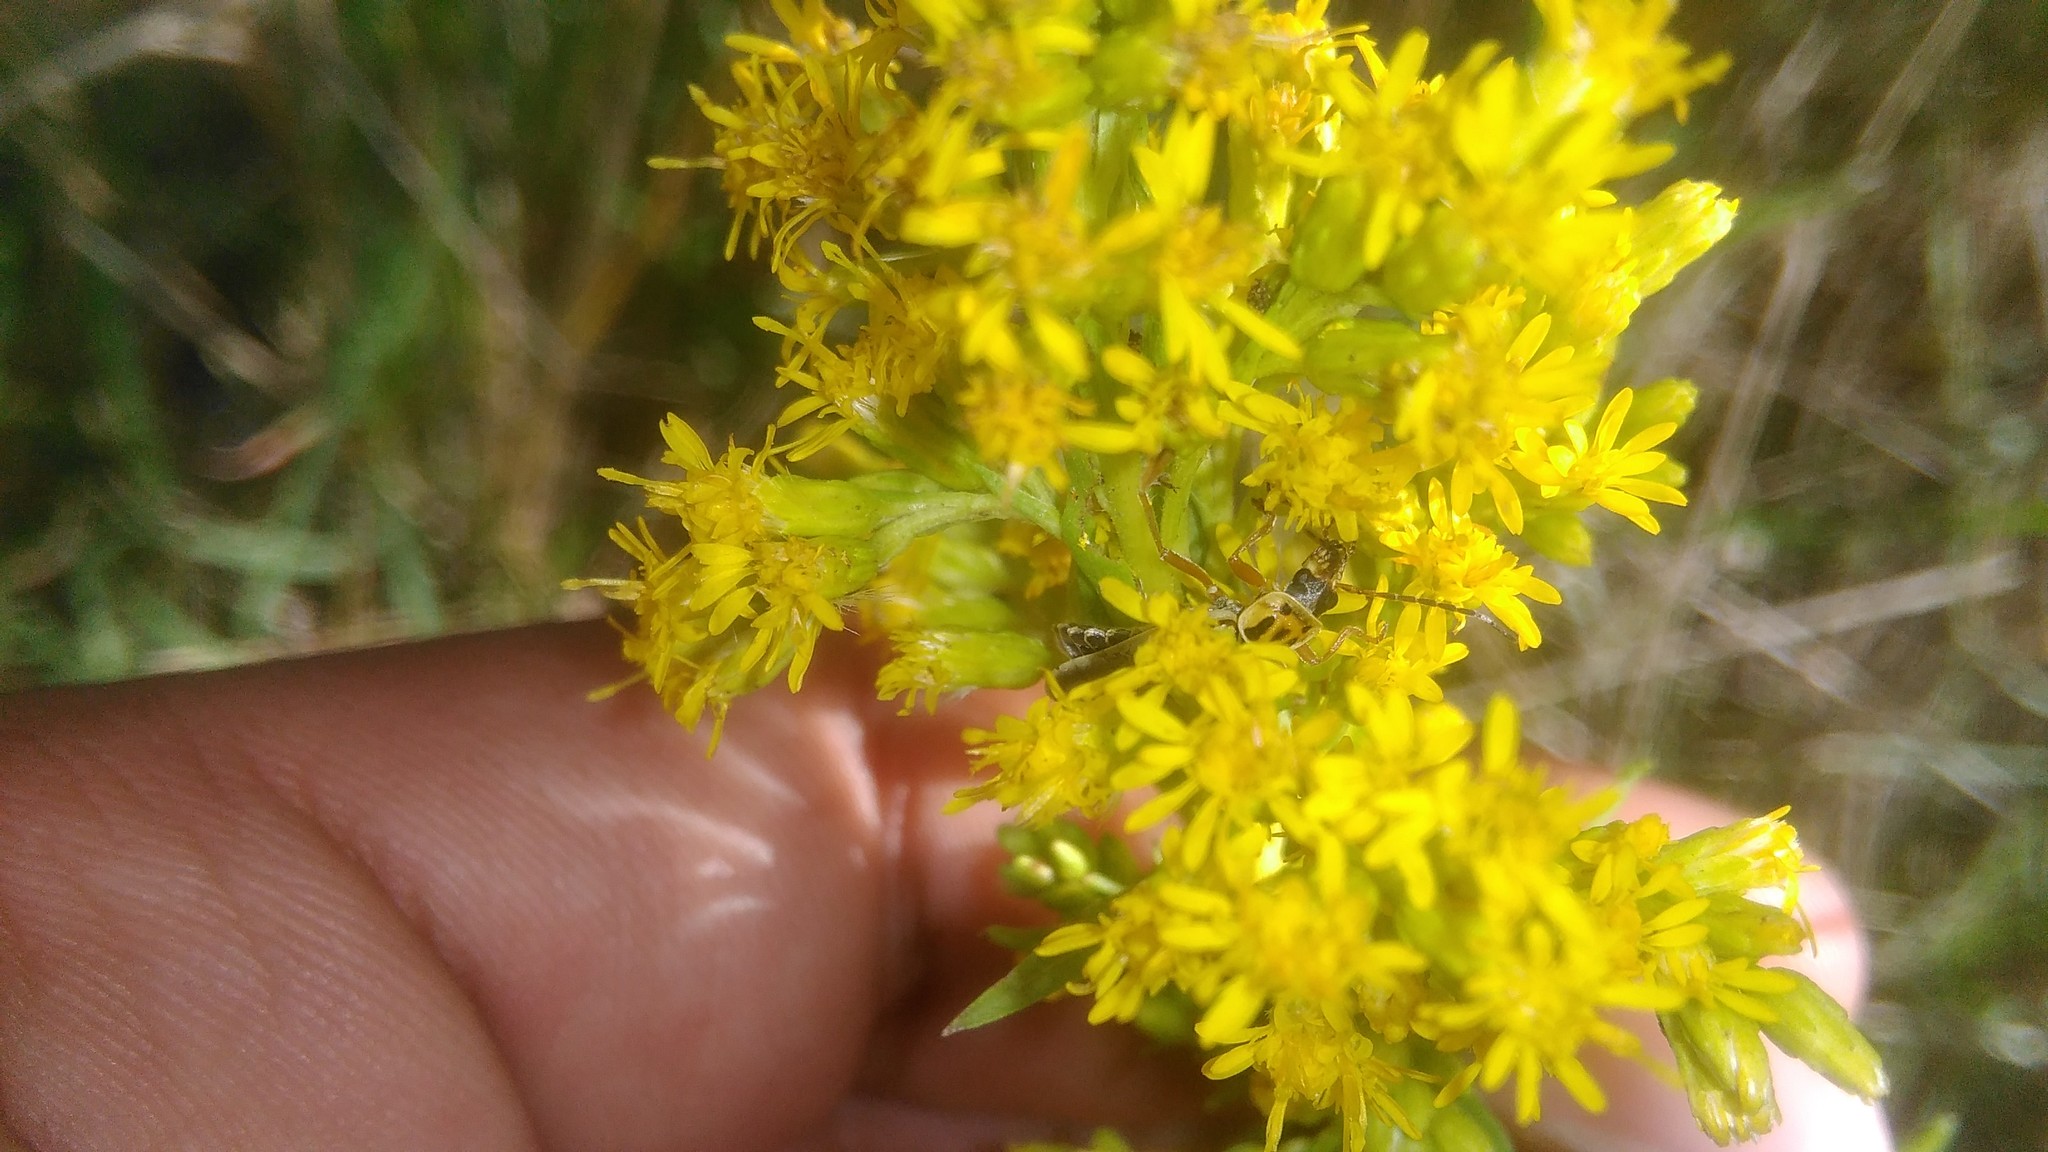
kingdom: Animalia
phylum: Arthropoda
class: Insecta
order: Coleoptera
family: Cantharidae
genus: Chauliognathus
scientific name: Chauliognathus
